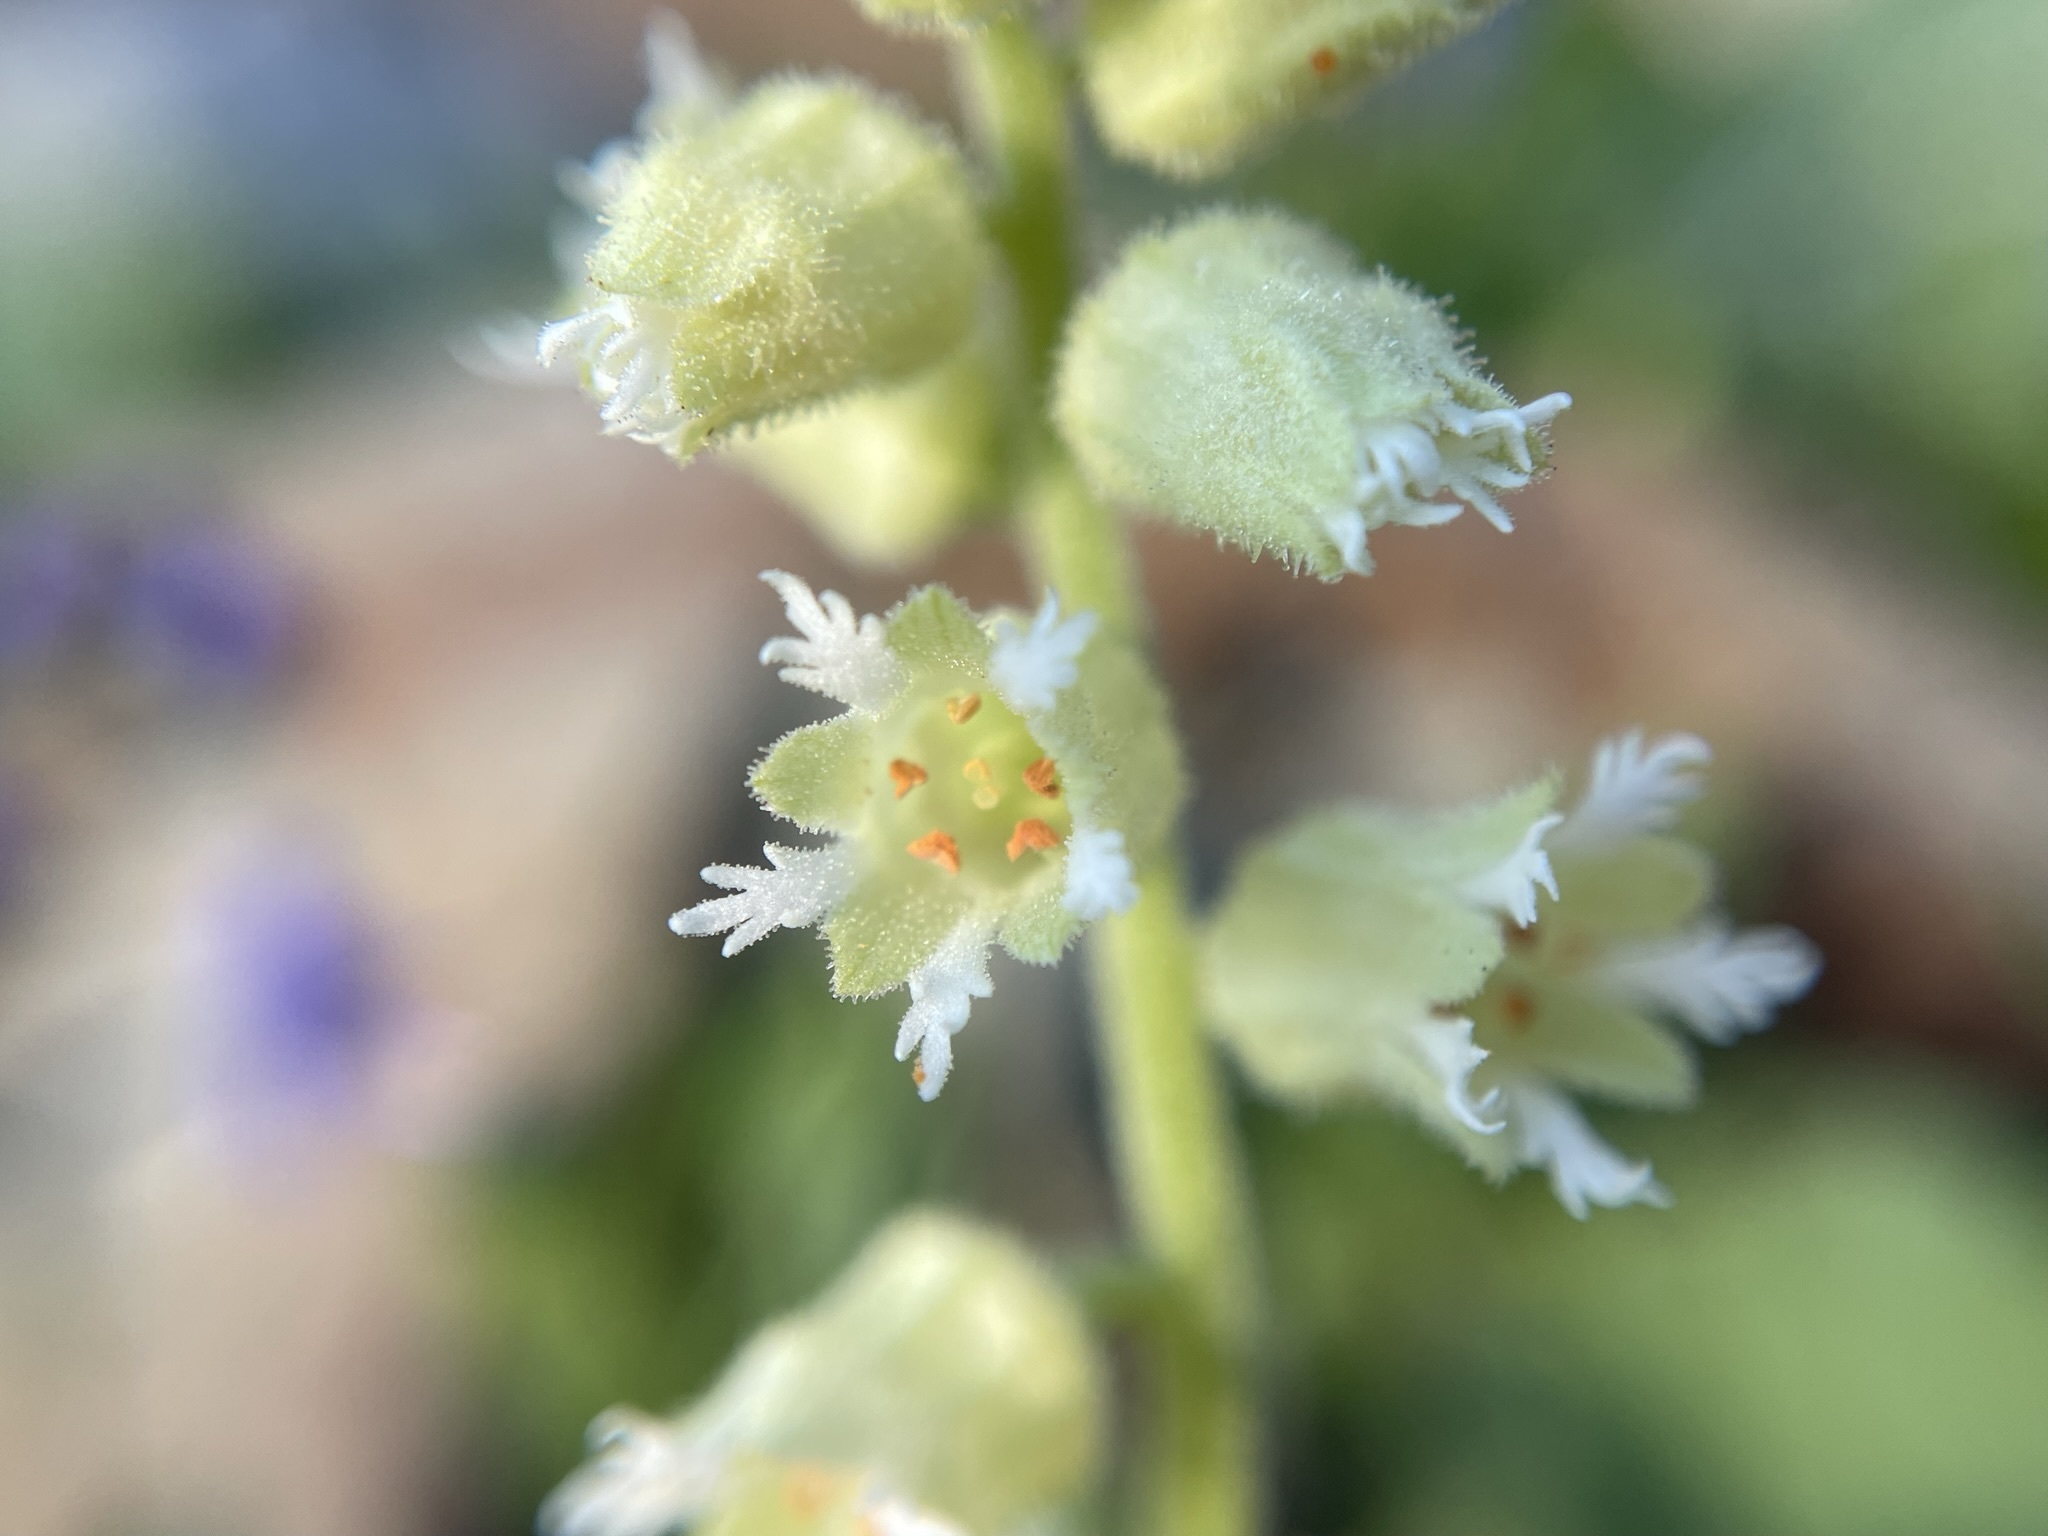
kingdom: Plantae
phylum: Tracheophyta
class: Magnoliopsida
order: Saxifragales
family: Saxifragaceae
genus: Elmera
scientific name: Elmera racemosa
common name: Elmera
